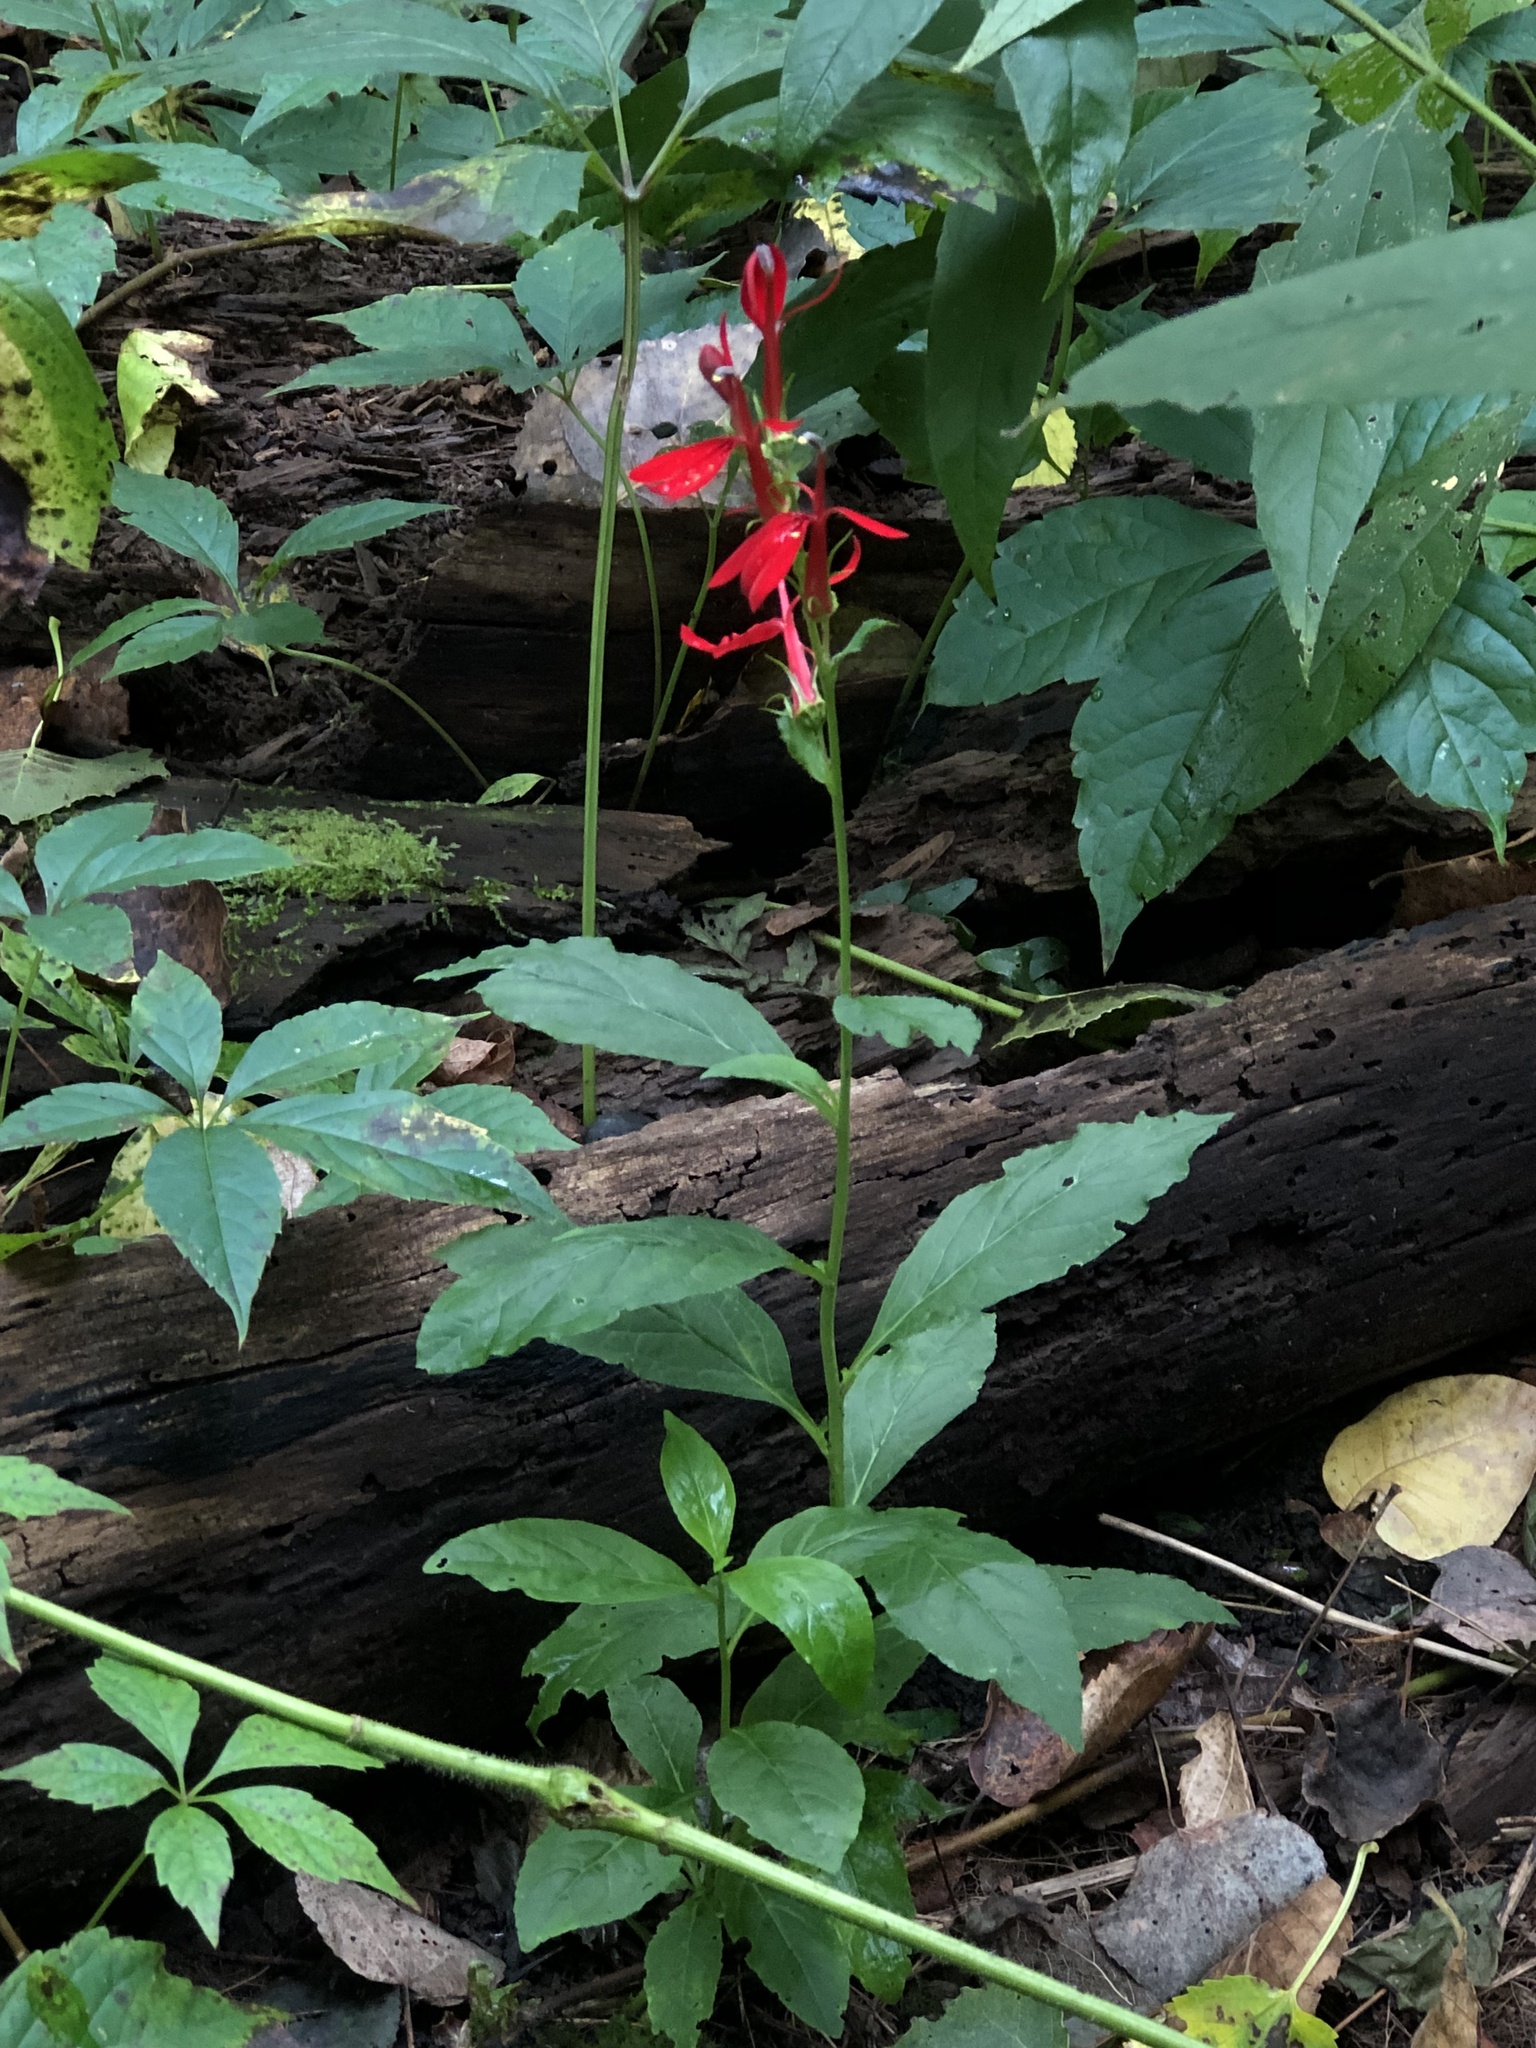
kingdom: Plantae
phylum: Tracheophyta
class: Magnoliopsida
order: Asterales
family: Campanulaceae
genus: Lobelia
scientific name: Lobelia cardinalis
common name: Cardinal flower
